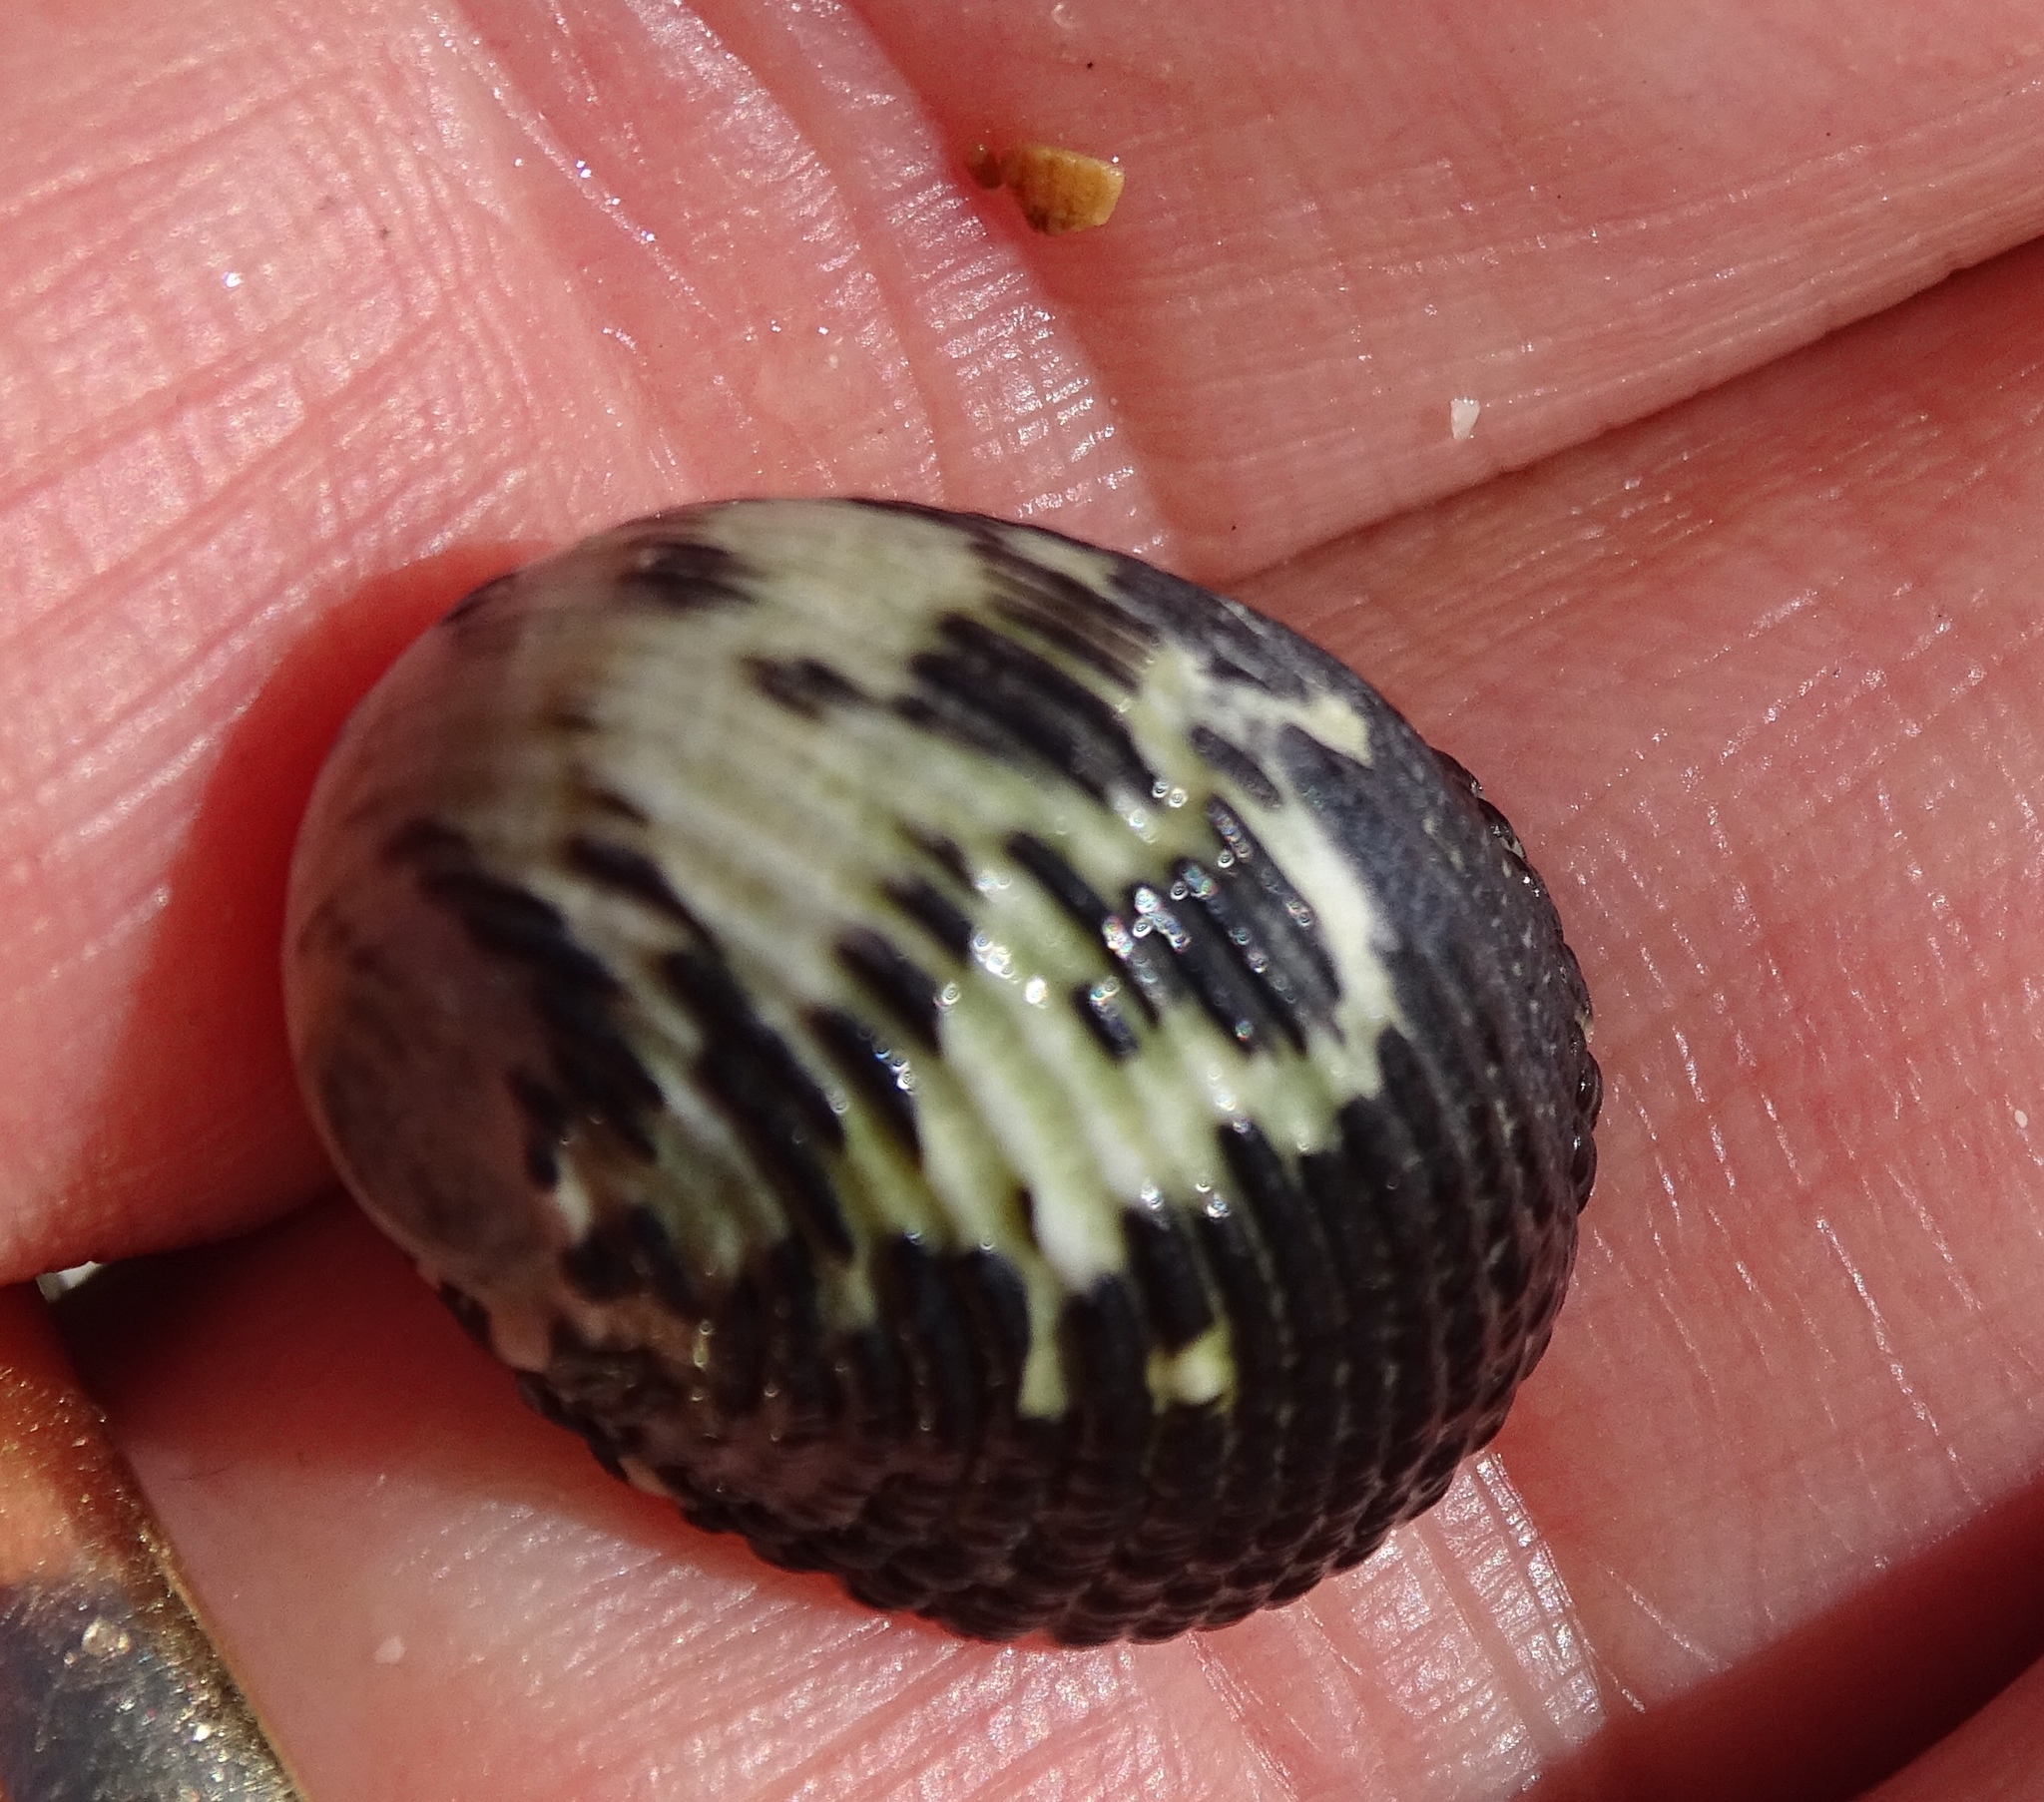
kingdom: Animalia
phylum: Mollusca
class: Gastropoda
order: Cycloneritida
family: Neritidae
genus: Nerita
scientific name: Nerita tessellata
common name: Checkered nerite
